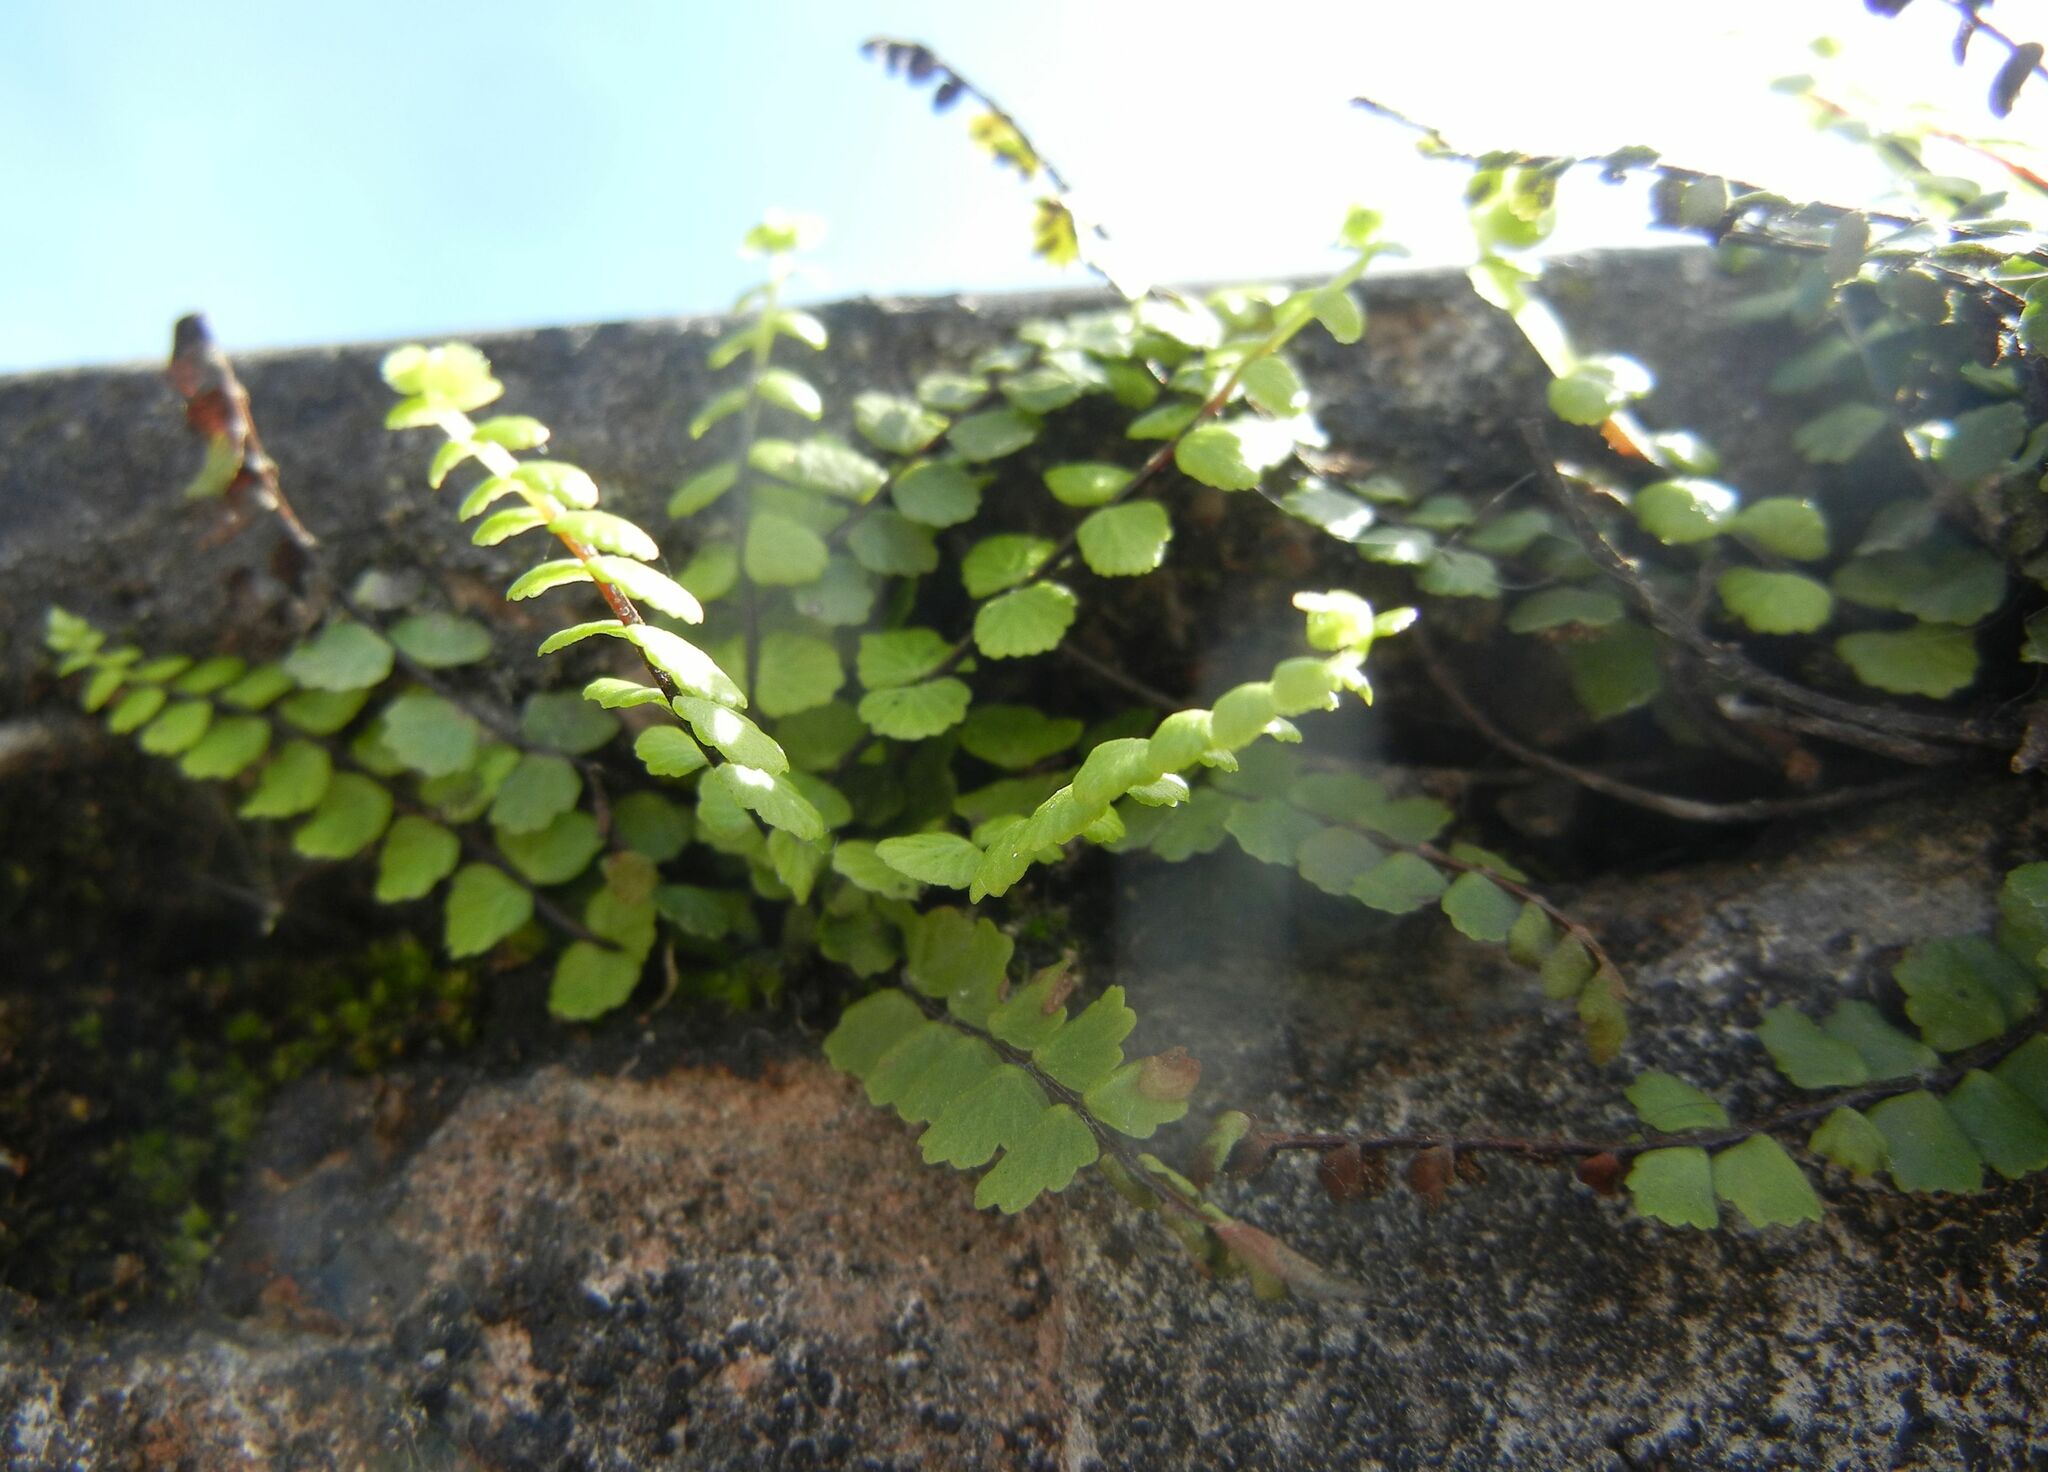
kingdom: Plantae
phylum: Tracheophyta
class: Polypodiopsida
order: Polypodiales
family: Aspleniaceae
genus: Asplenium
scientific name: Asplenium trichomanes
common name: Maidenhair spleenwort
